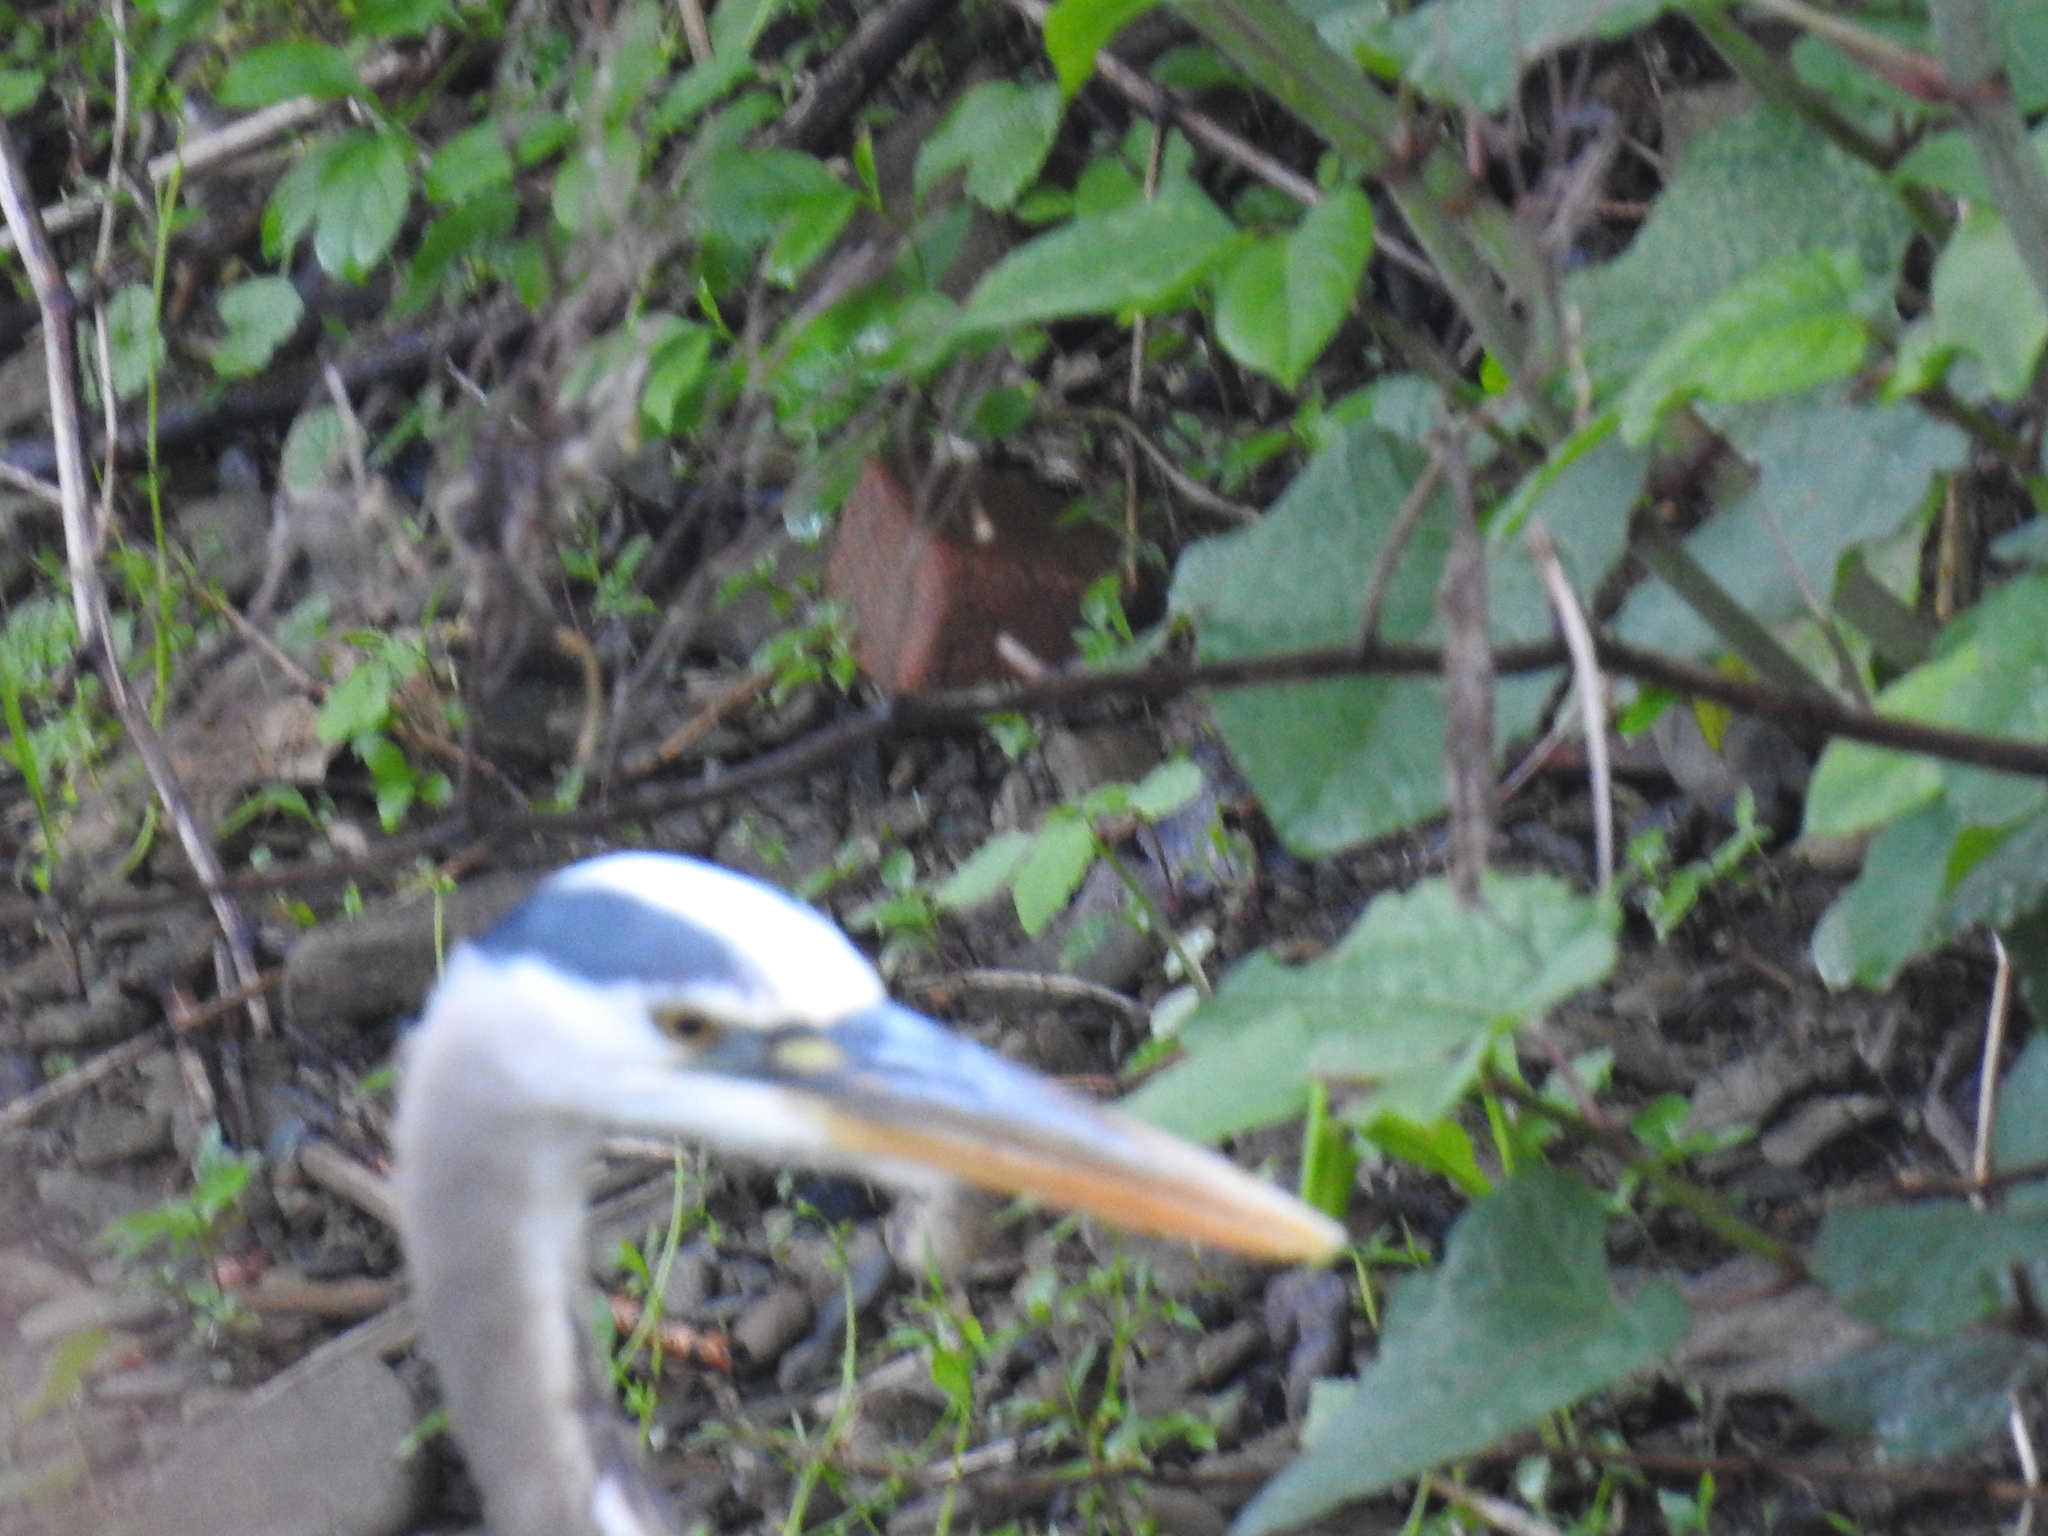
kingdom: Animalia
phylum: Chordata
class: Aves
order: Pelecaniformes
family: Ardeidae
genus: Ardea
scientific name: Ardea herodias
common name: Great blue heron
